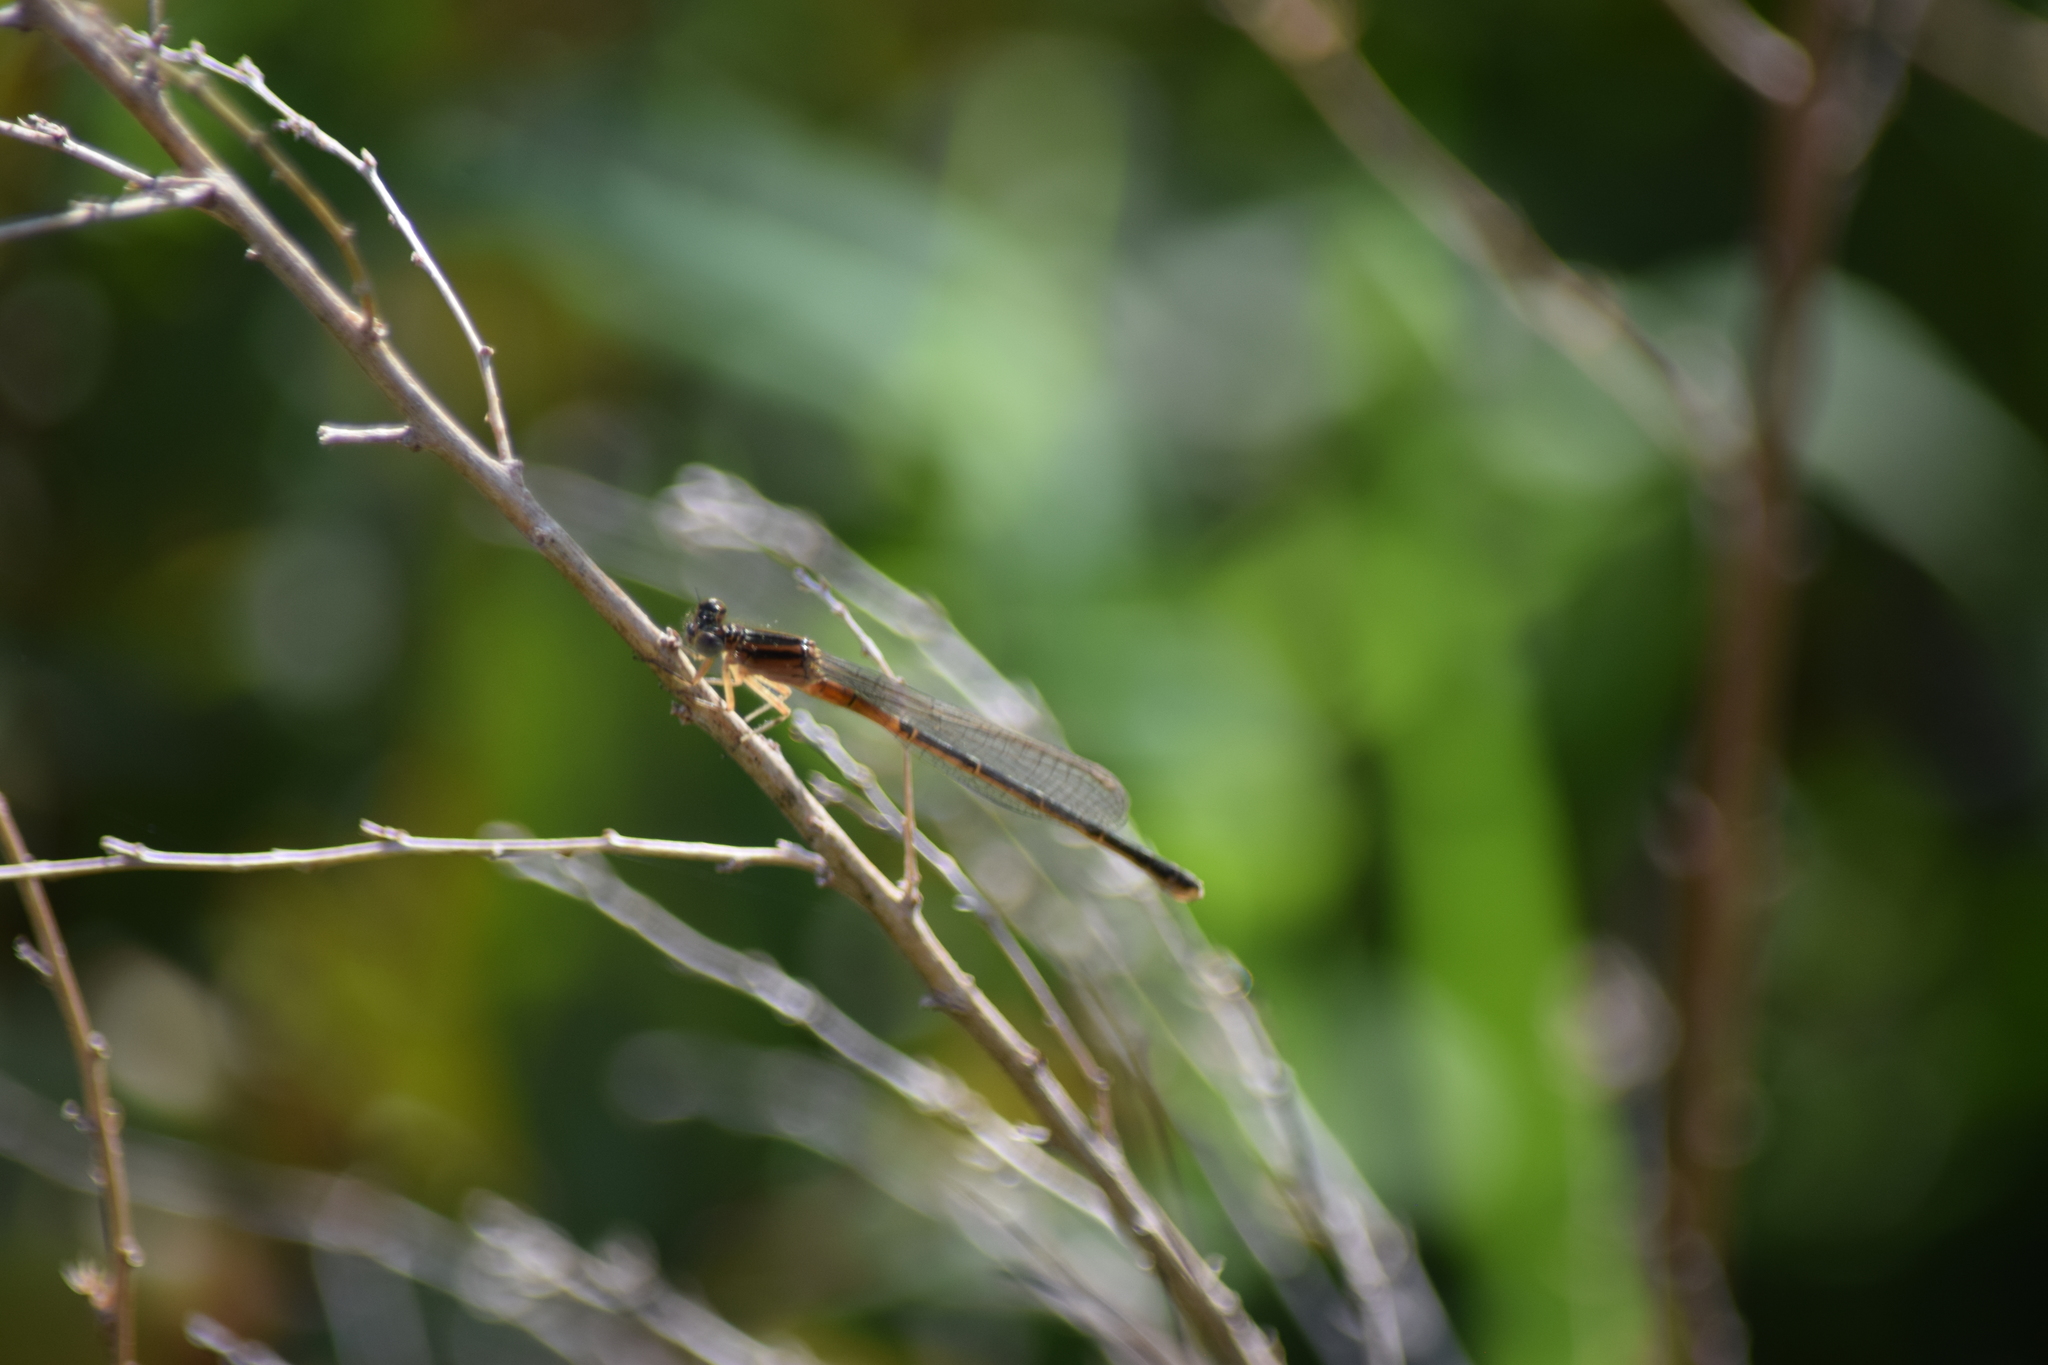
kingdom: Animalia
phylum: Arthropoda
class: Insecta
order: Odonata
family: Coenagrionidae
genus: Ischnura
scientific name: Ischnura verticalis
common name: Eastern forktail
